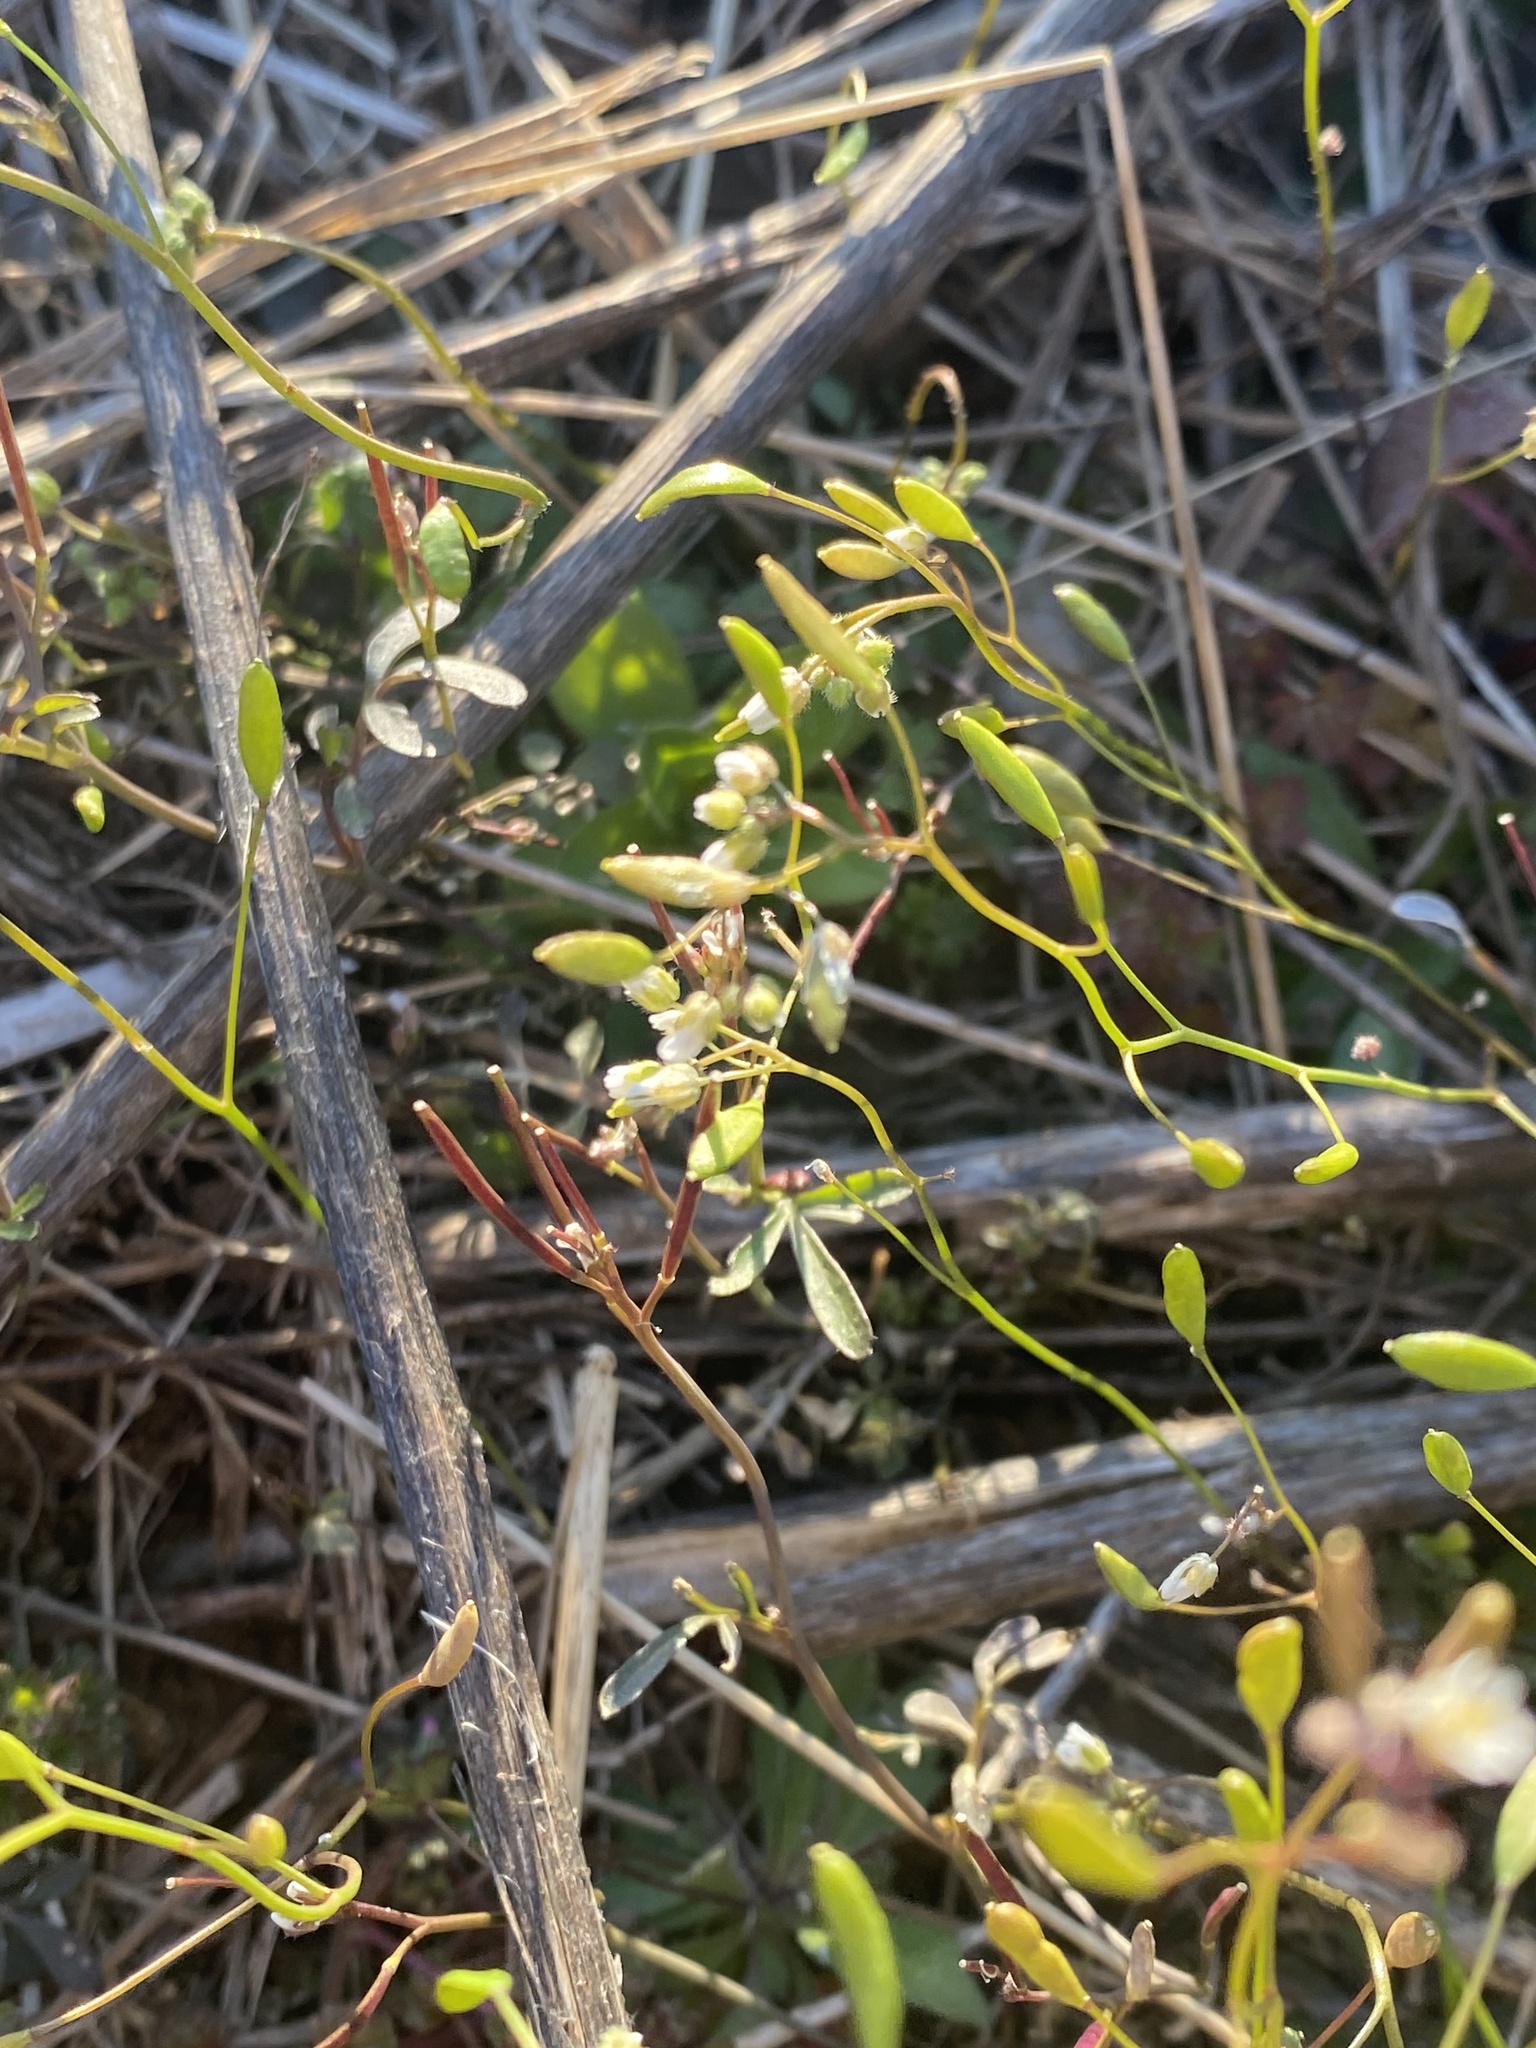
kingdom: Plantae
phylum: Tracheophyta
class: Magnoliopsida
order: Brassicales
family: Brassicaceae
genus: Draba
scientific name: Draba verna
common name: Spring draba
